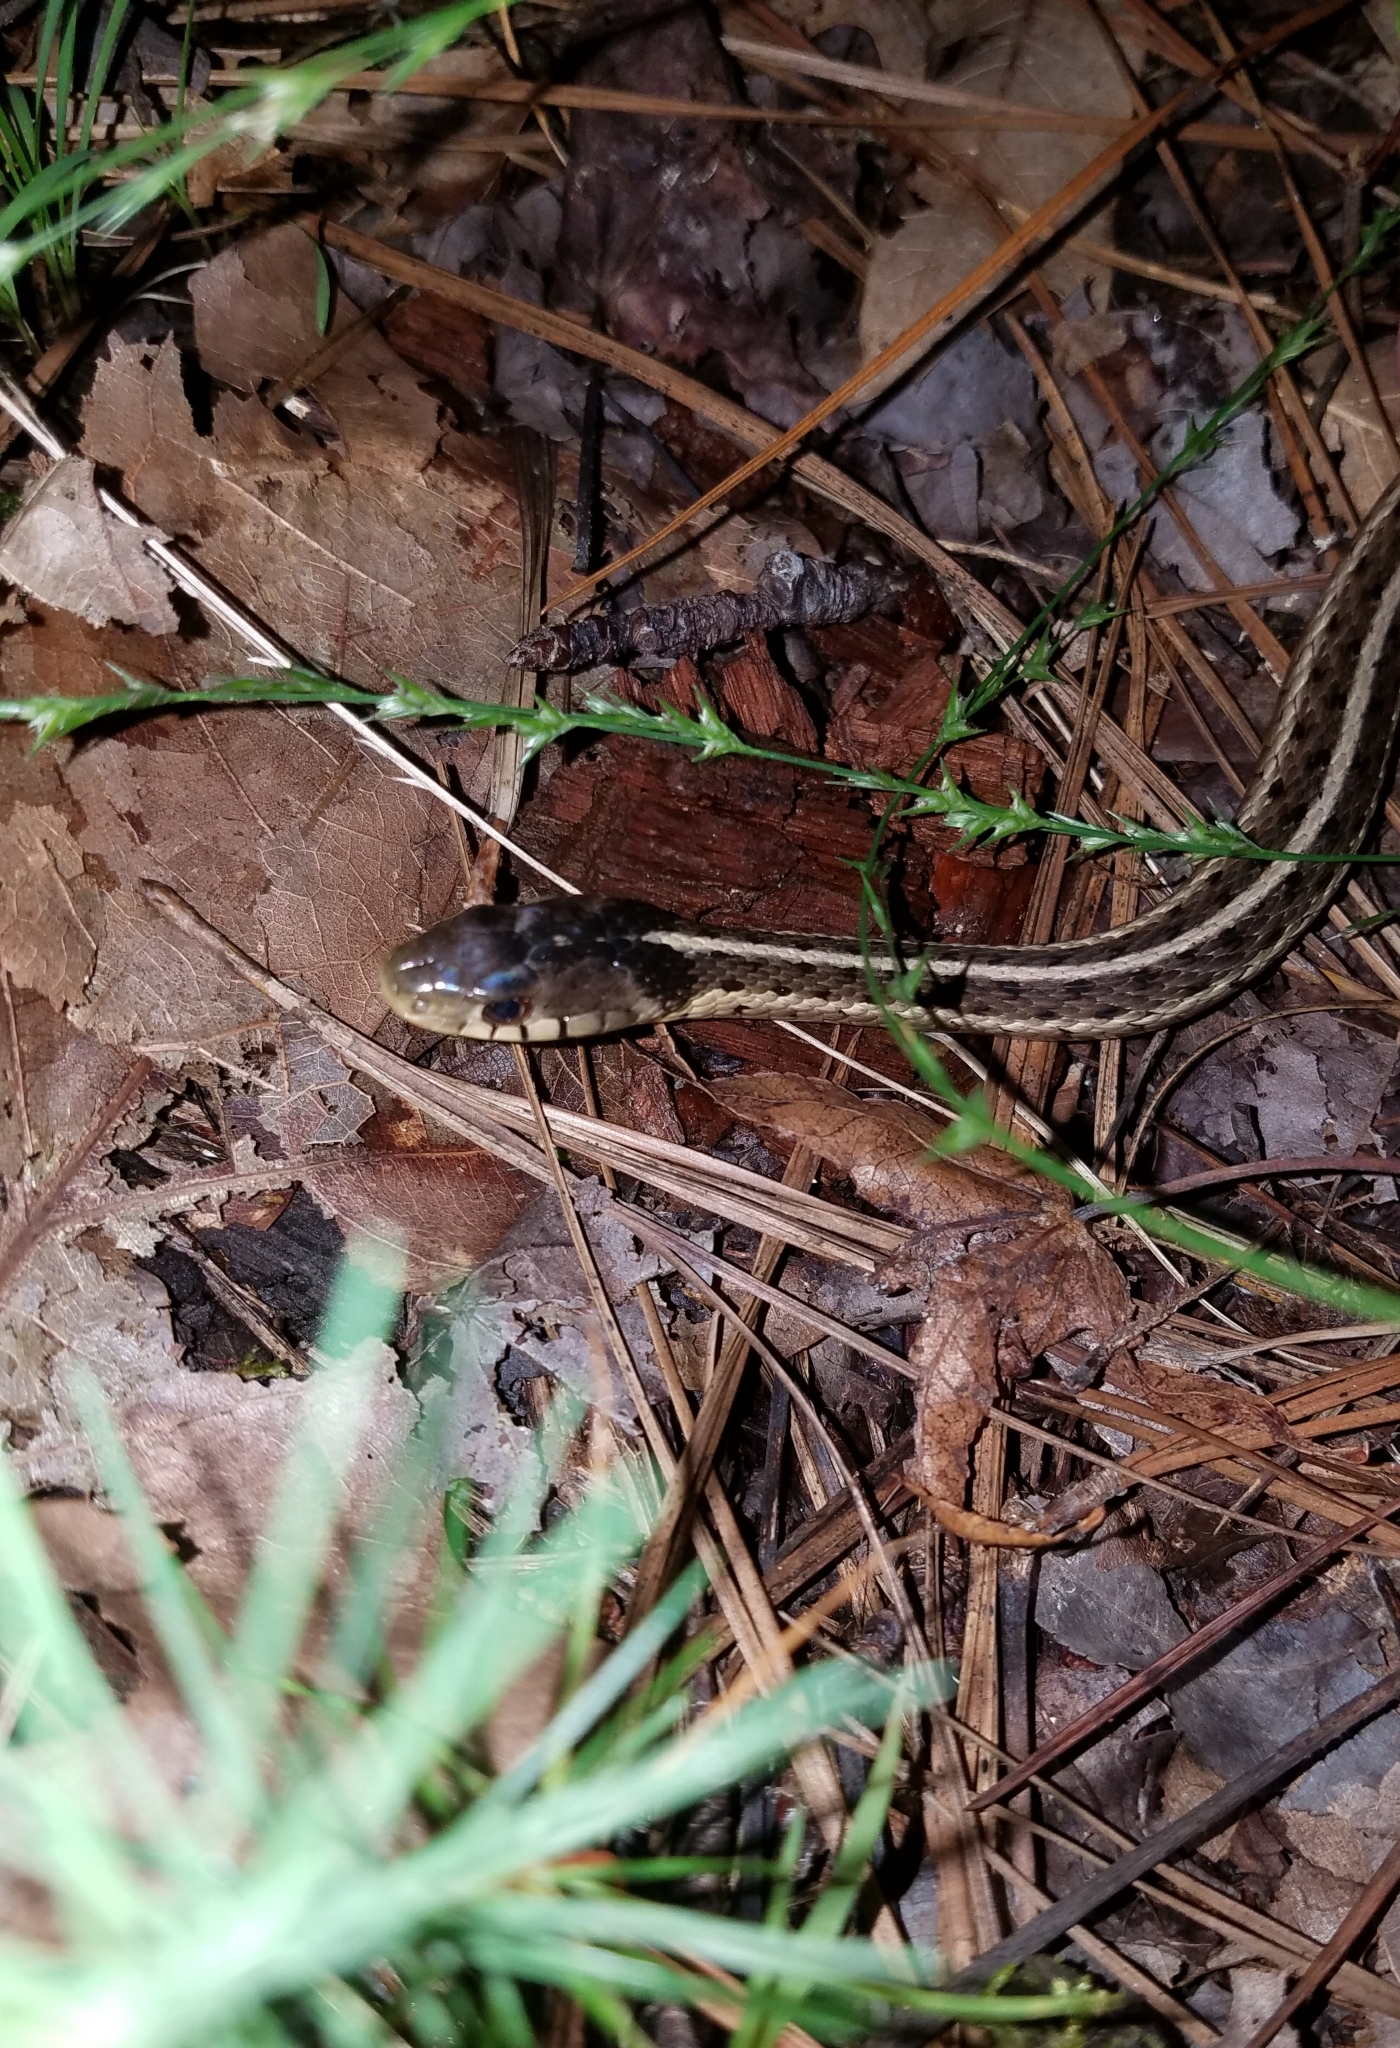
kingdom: Animalia
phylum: Chordata
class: Squamata
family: Colubridae
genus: Thamnophis
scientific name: Thamnophis sirtalis
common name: Common garter snake
